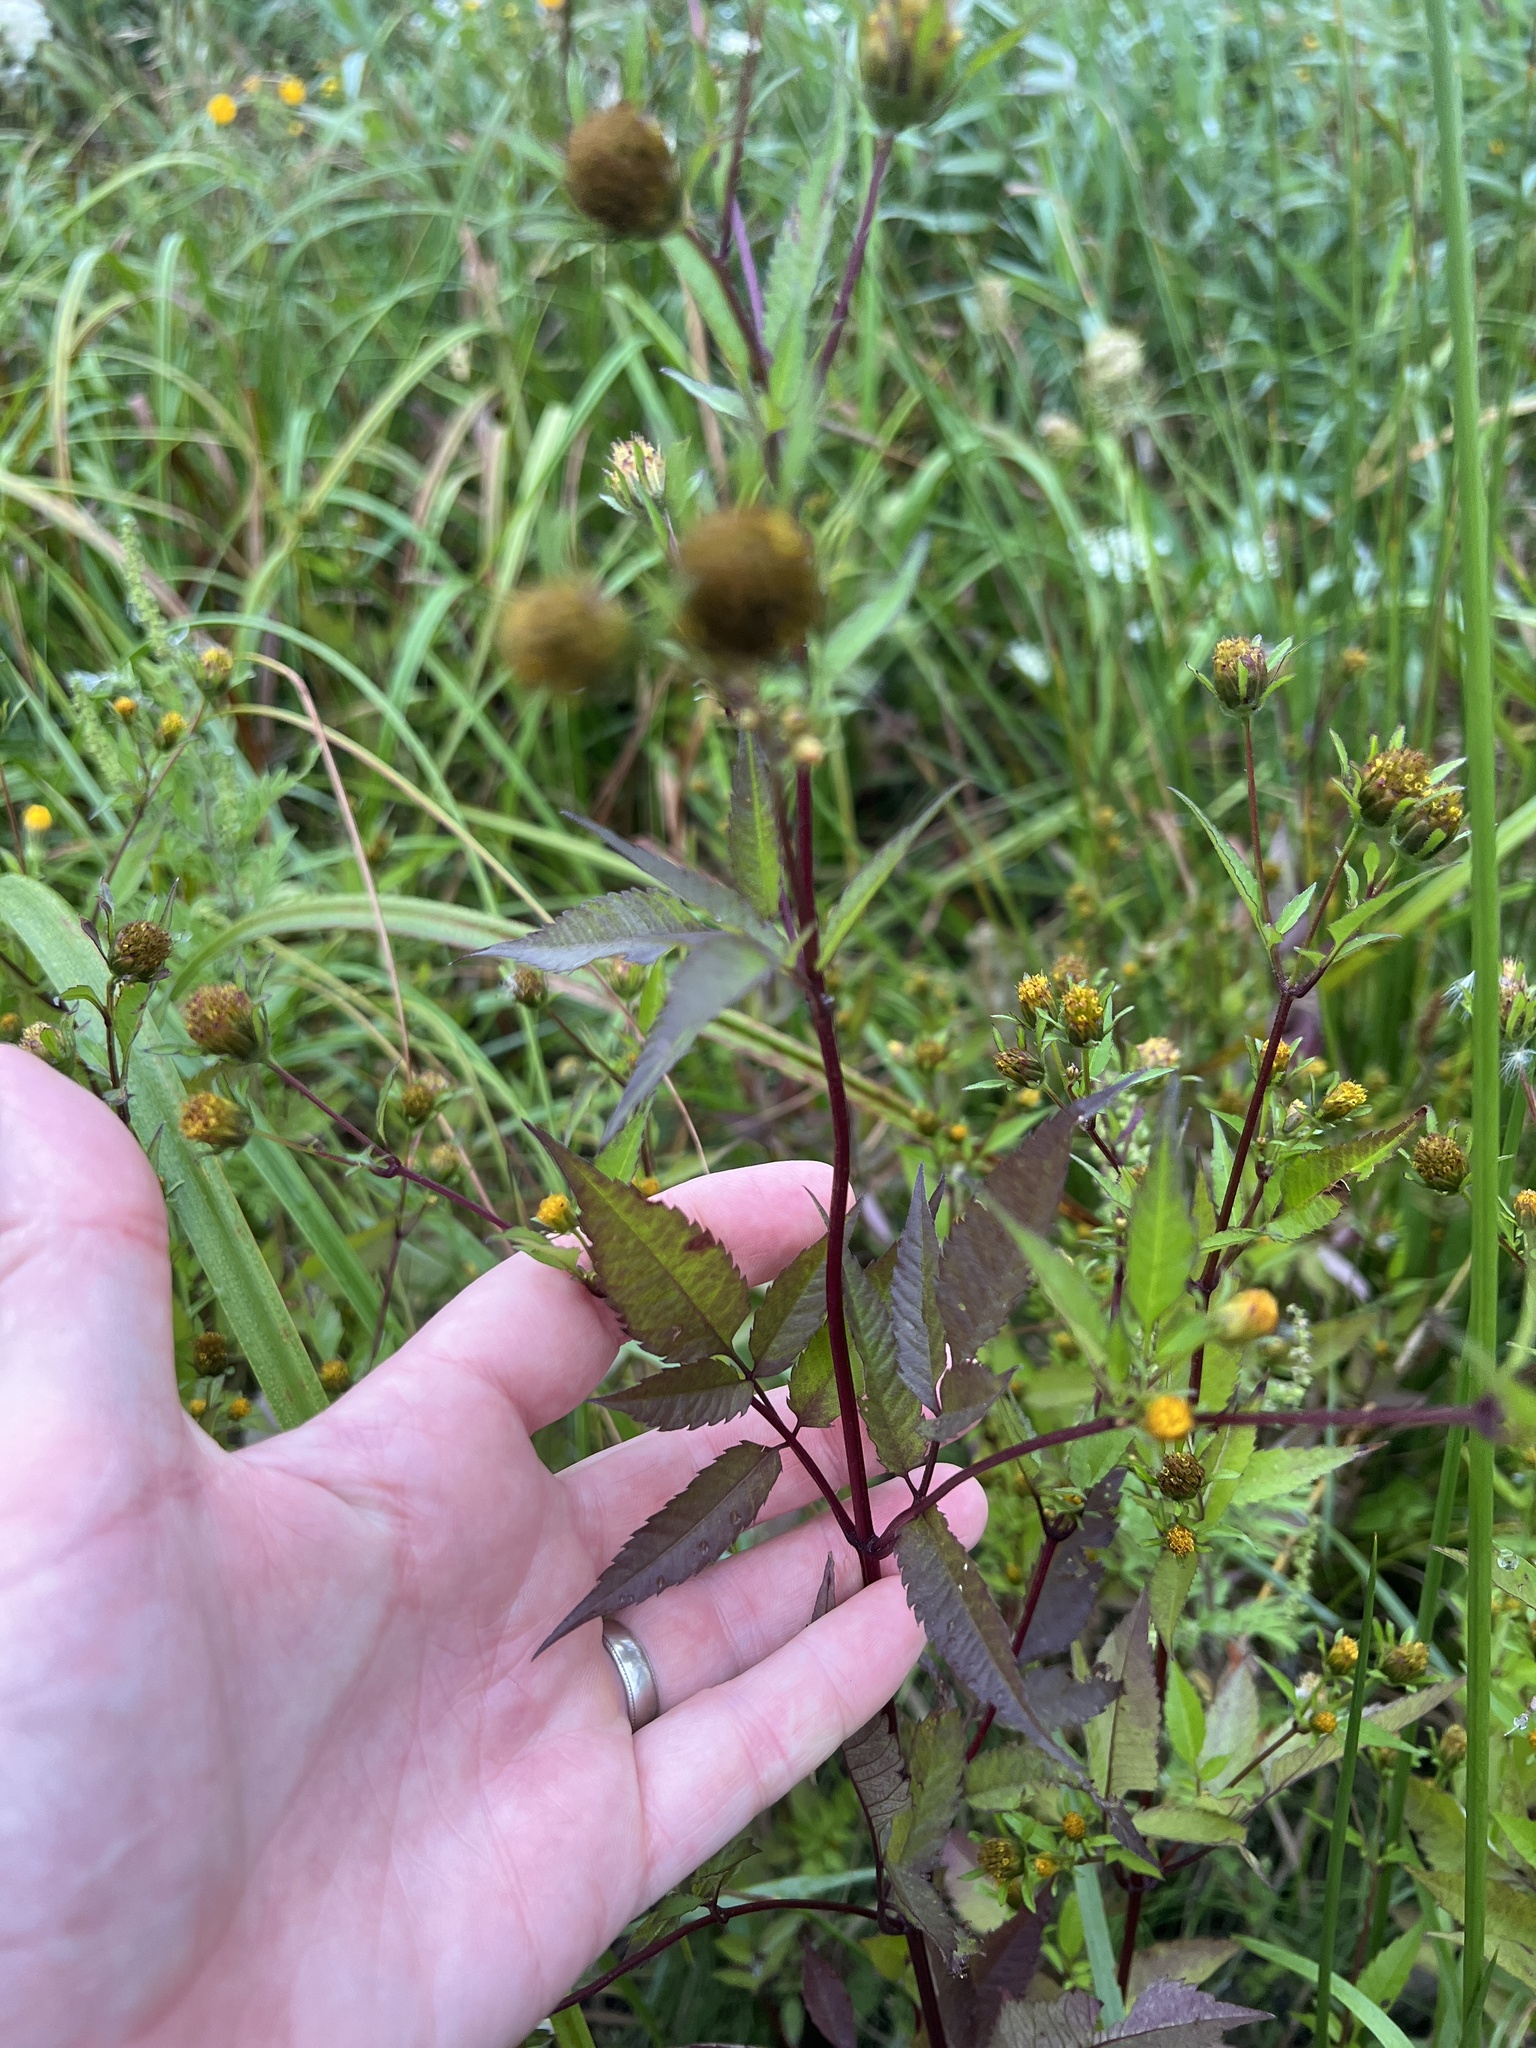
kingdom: Plantae
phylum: Tracheophyta
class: Magnoliopsida
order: Asterales
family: Asteraceae
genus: Bidens
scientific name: Bidens frondosa
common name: Beggarticks
